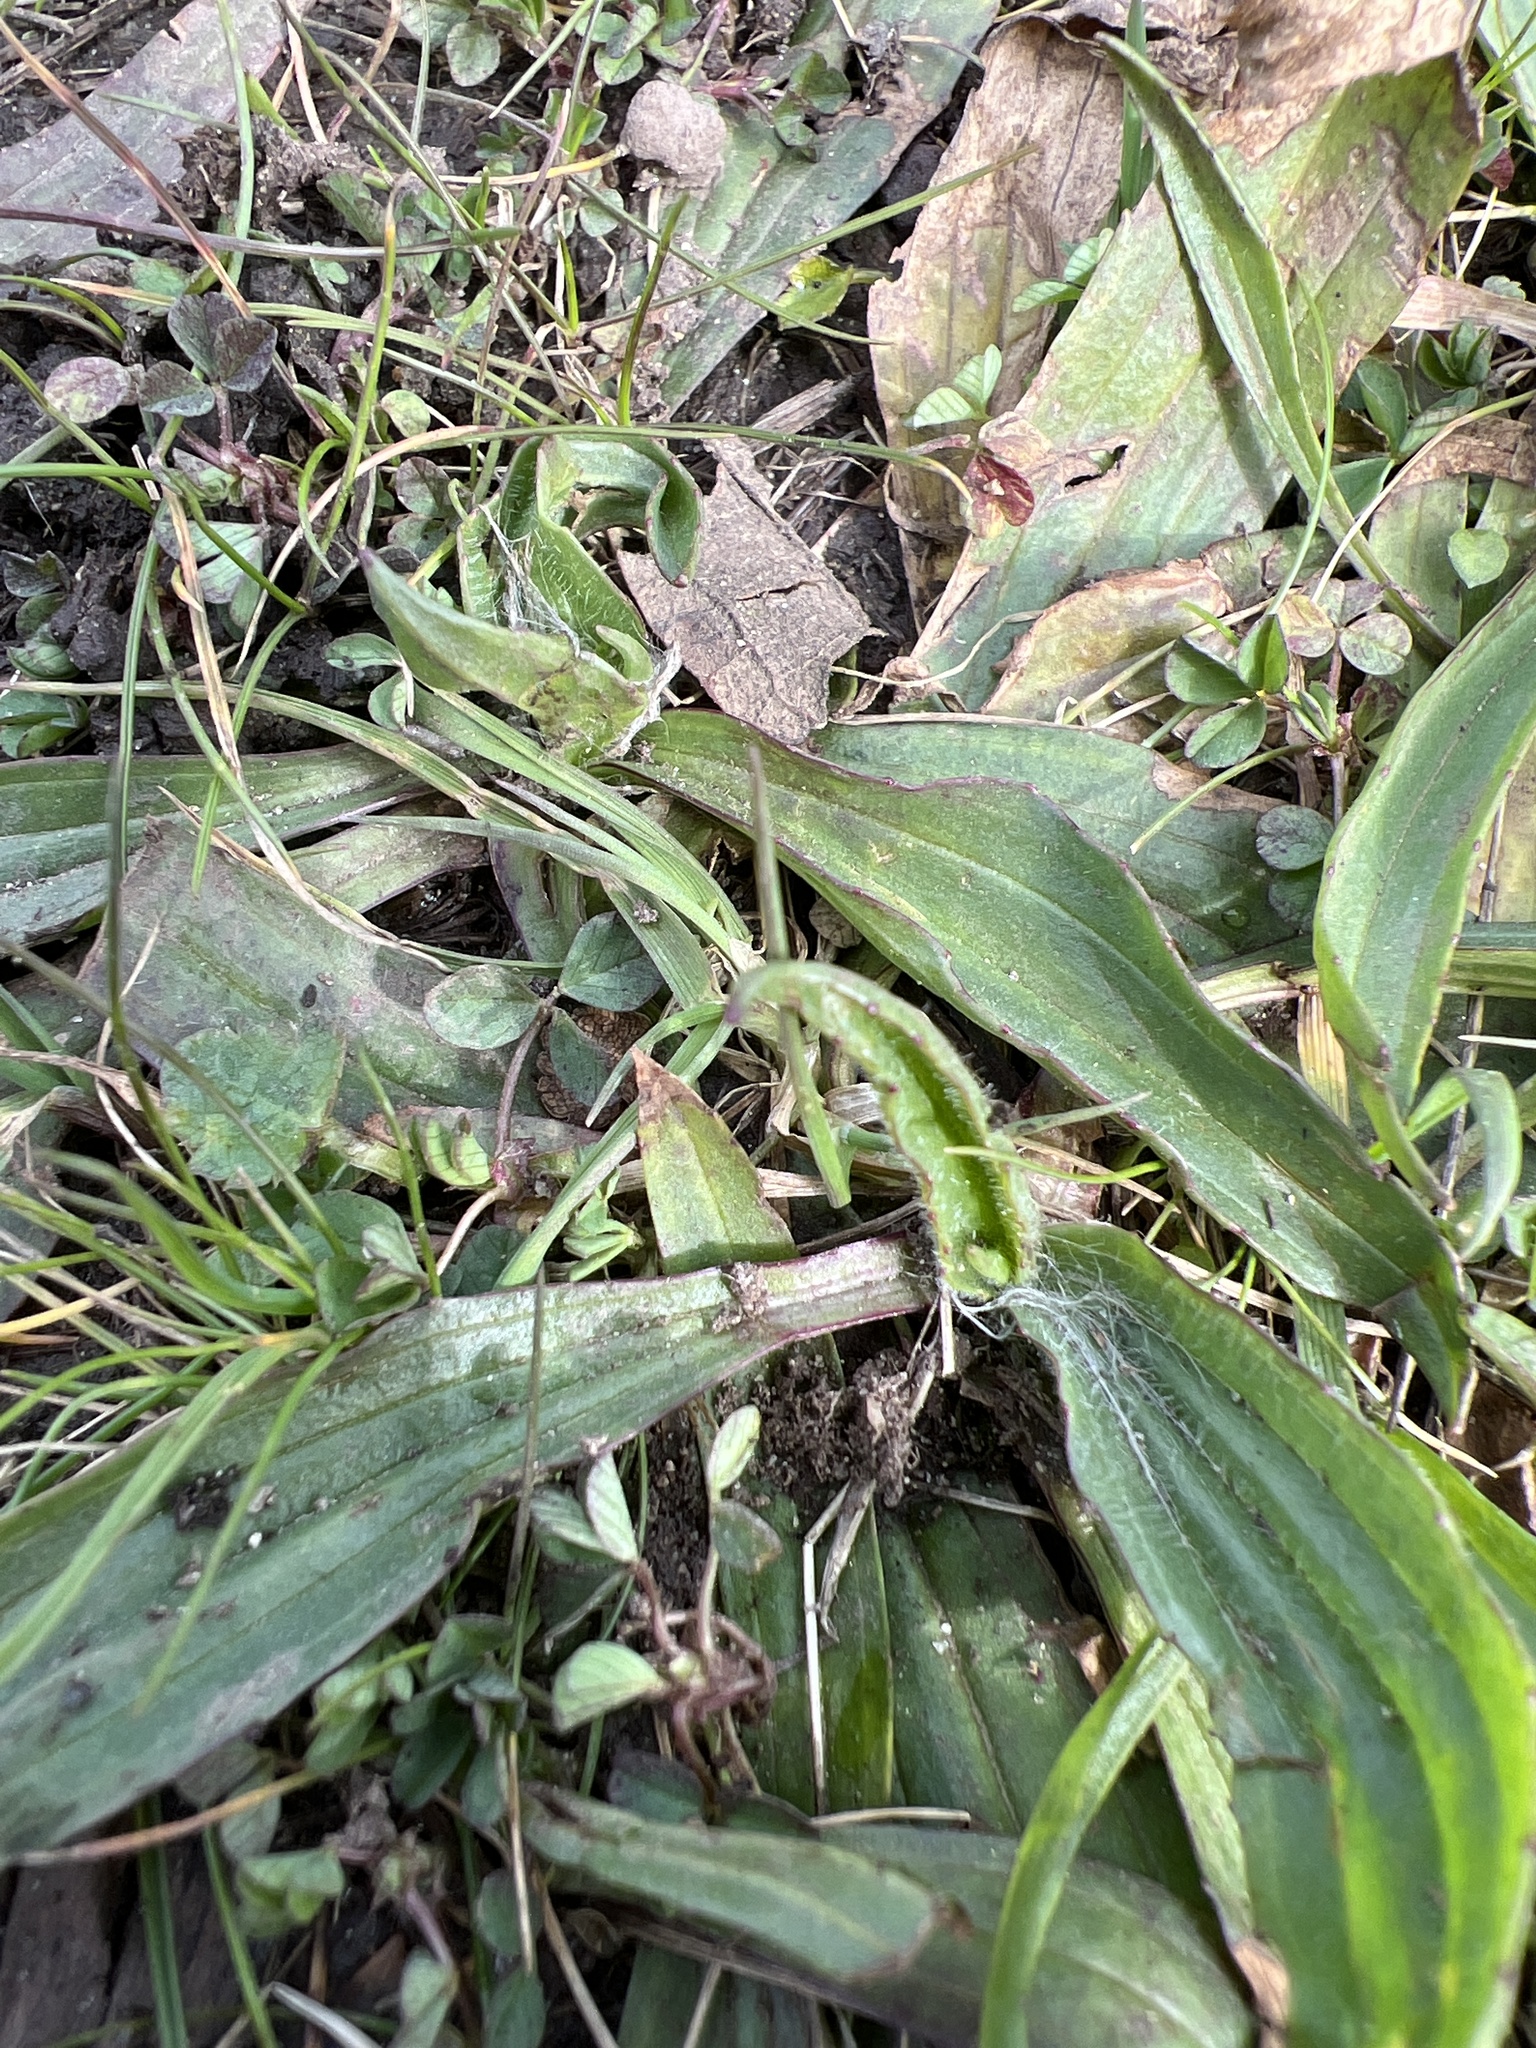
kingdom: Plantae
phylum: Tracheophyta
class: Magnoliopsida
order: Lamiales
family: Plantaginaceae
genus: Plantago
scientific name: Plantago lanceolata
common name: Ribwort plantain
